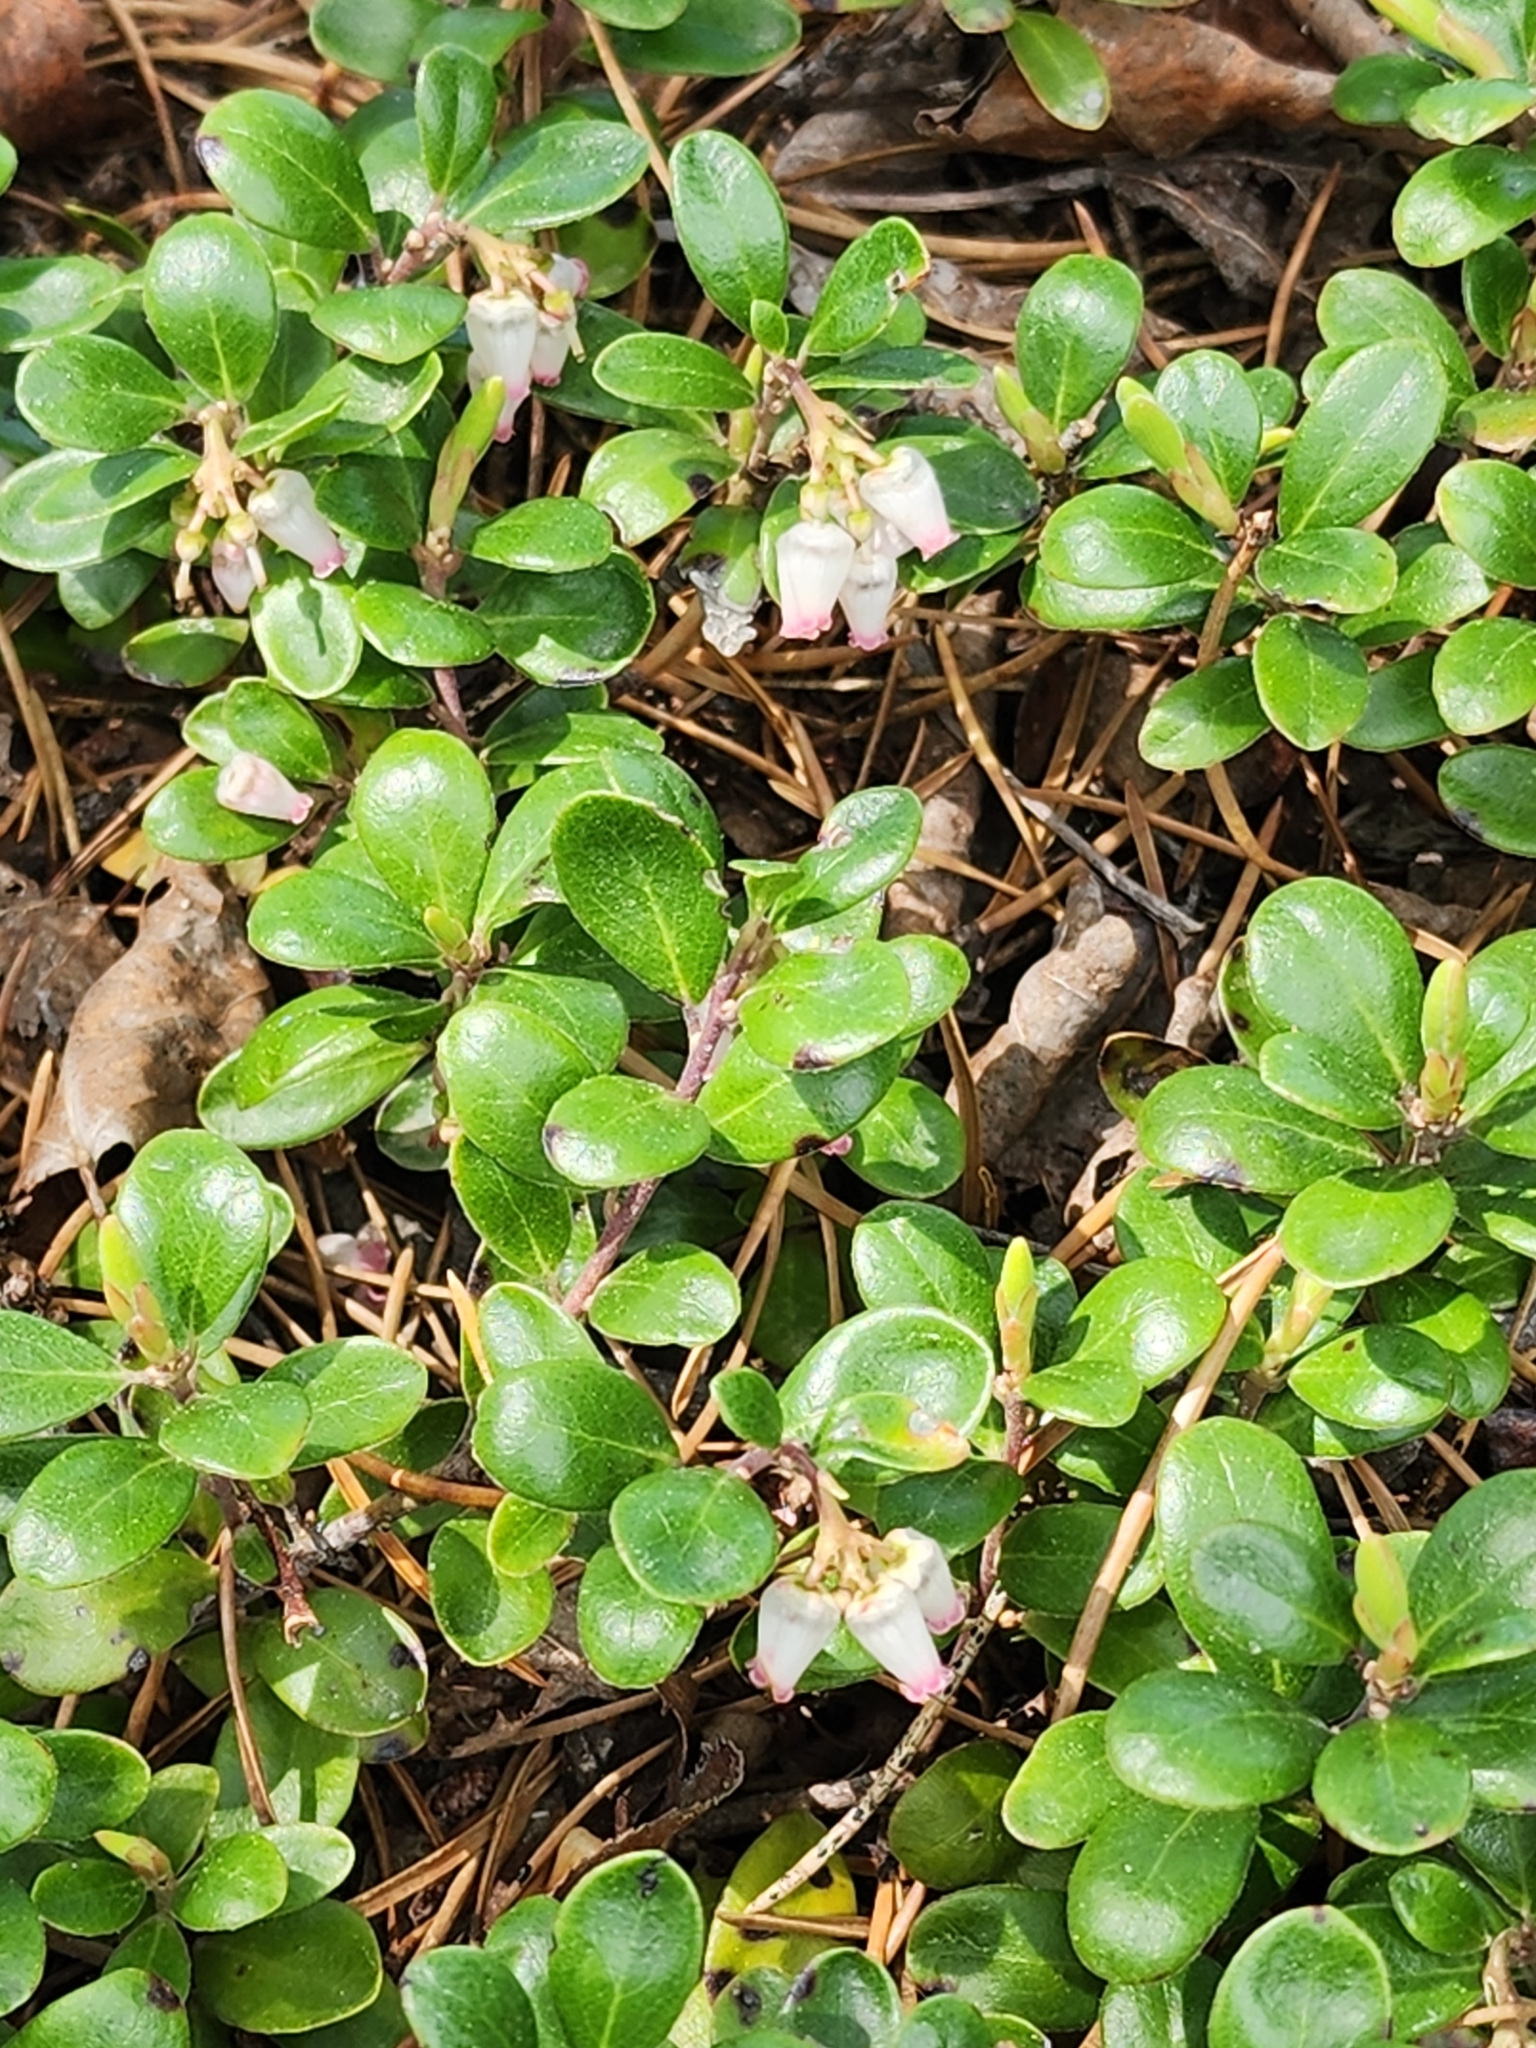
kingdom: Plantae
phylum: Tracheophyta
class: Magnoliopsida
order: Ericales
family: Ericaceae
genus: Arctostaphylos
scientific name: Arctostaphylos uva-ursi
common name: Bearberry
